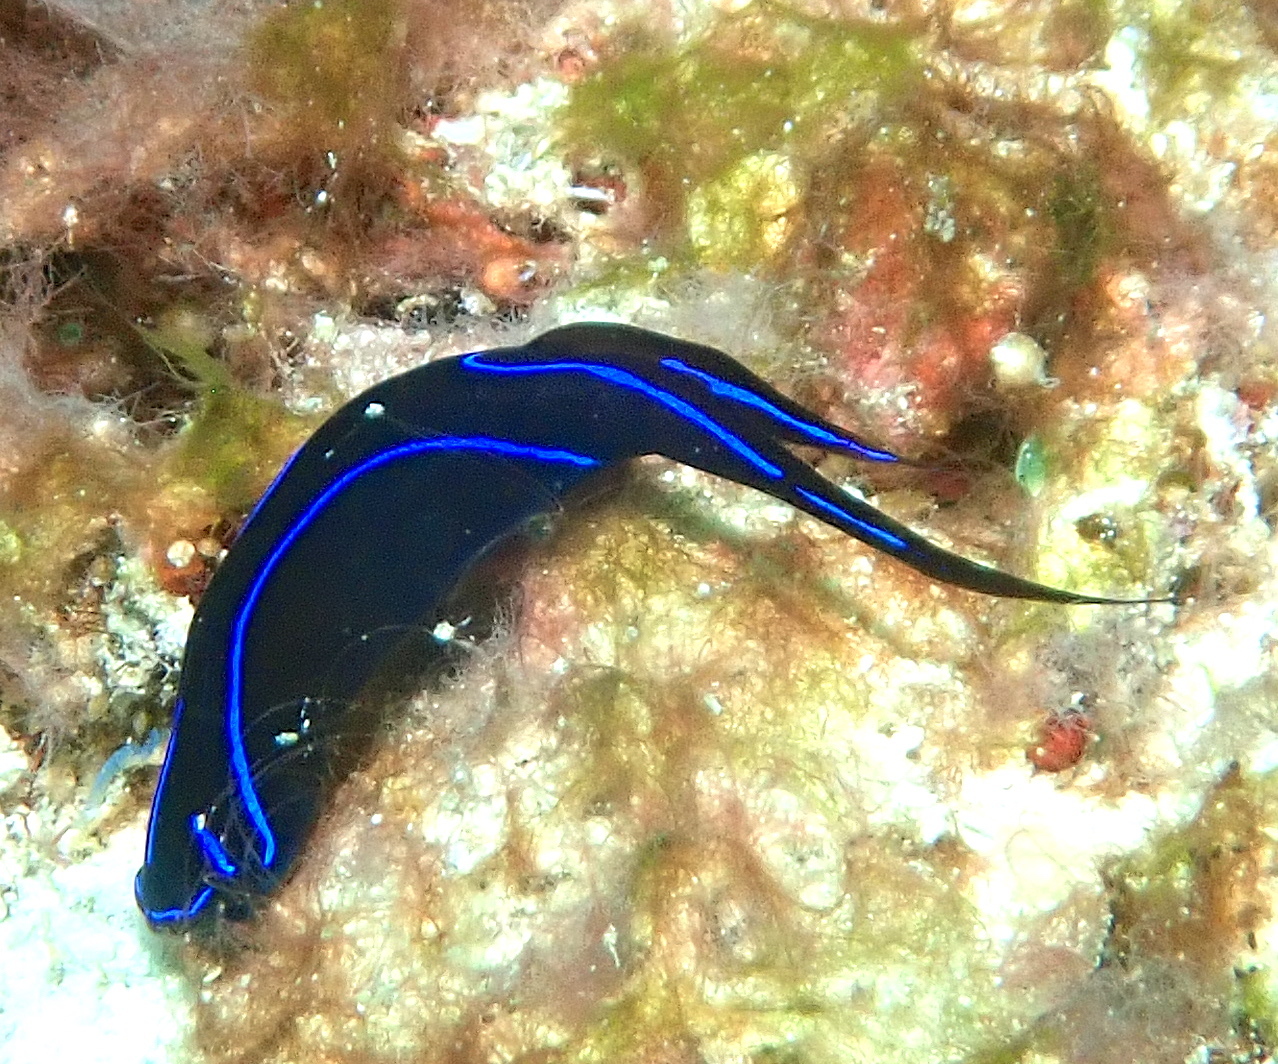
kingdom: Animalia
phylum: Mollusca
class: Gastropoda
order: Cephalaspidea
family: Aglajidae
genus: Chelidonura
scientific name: Chelidonura varians
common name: Blue velvet headshield slug
